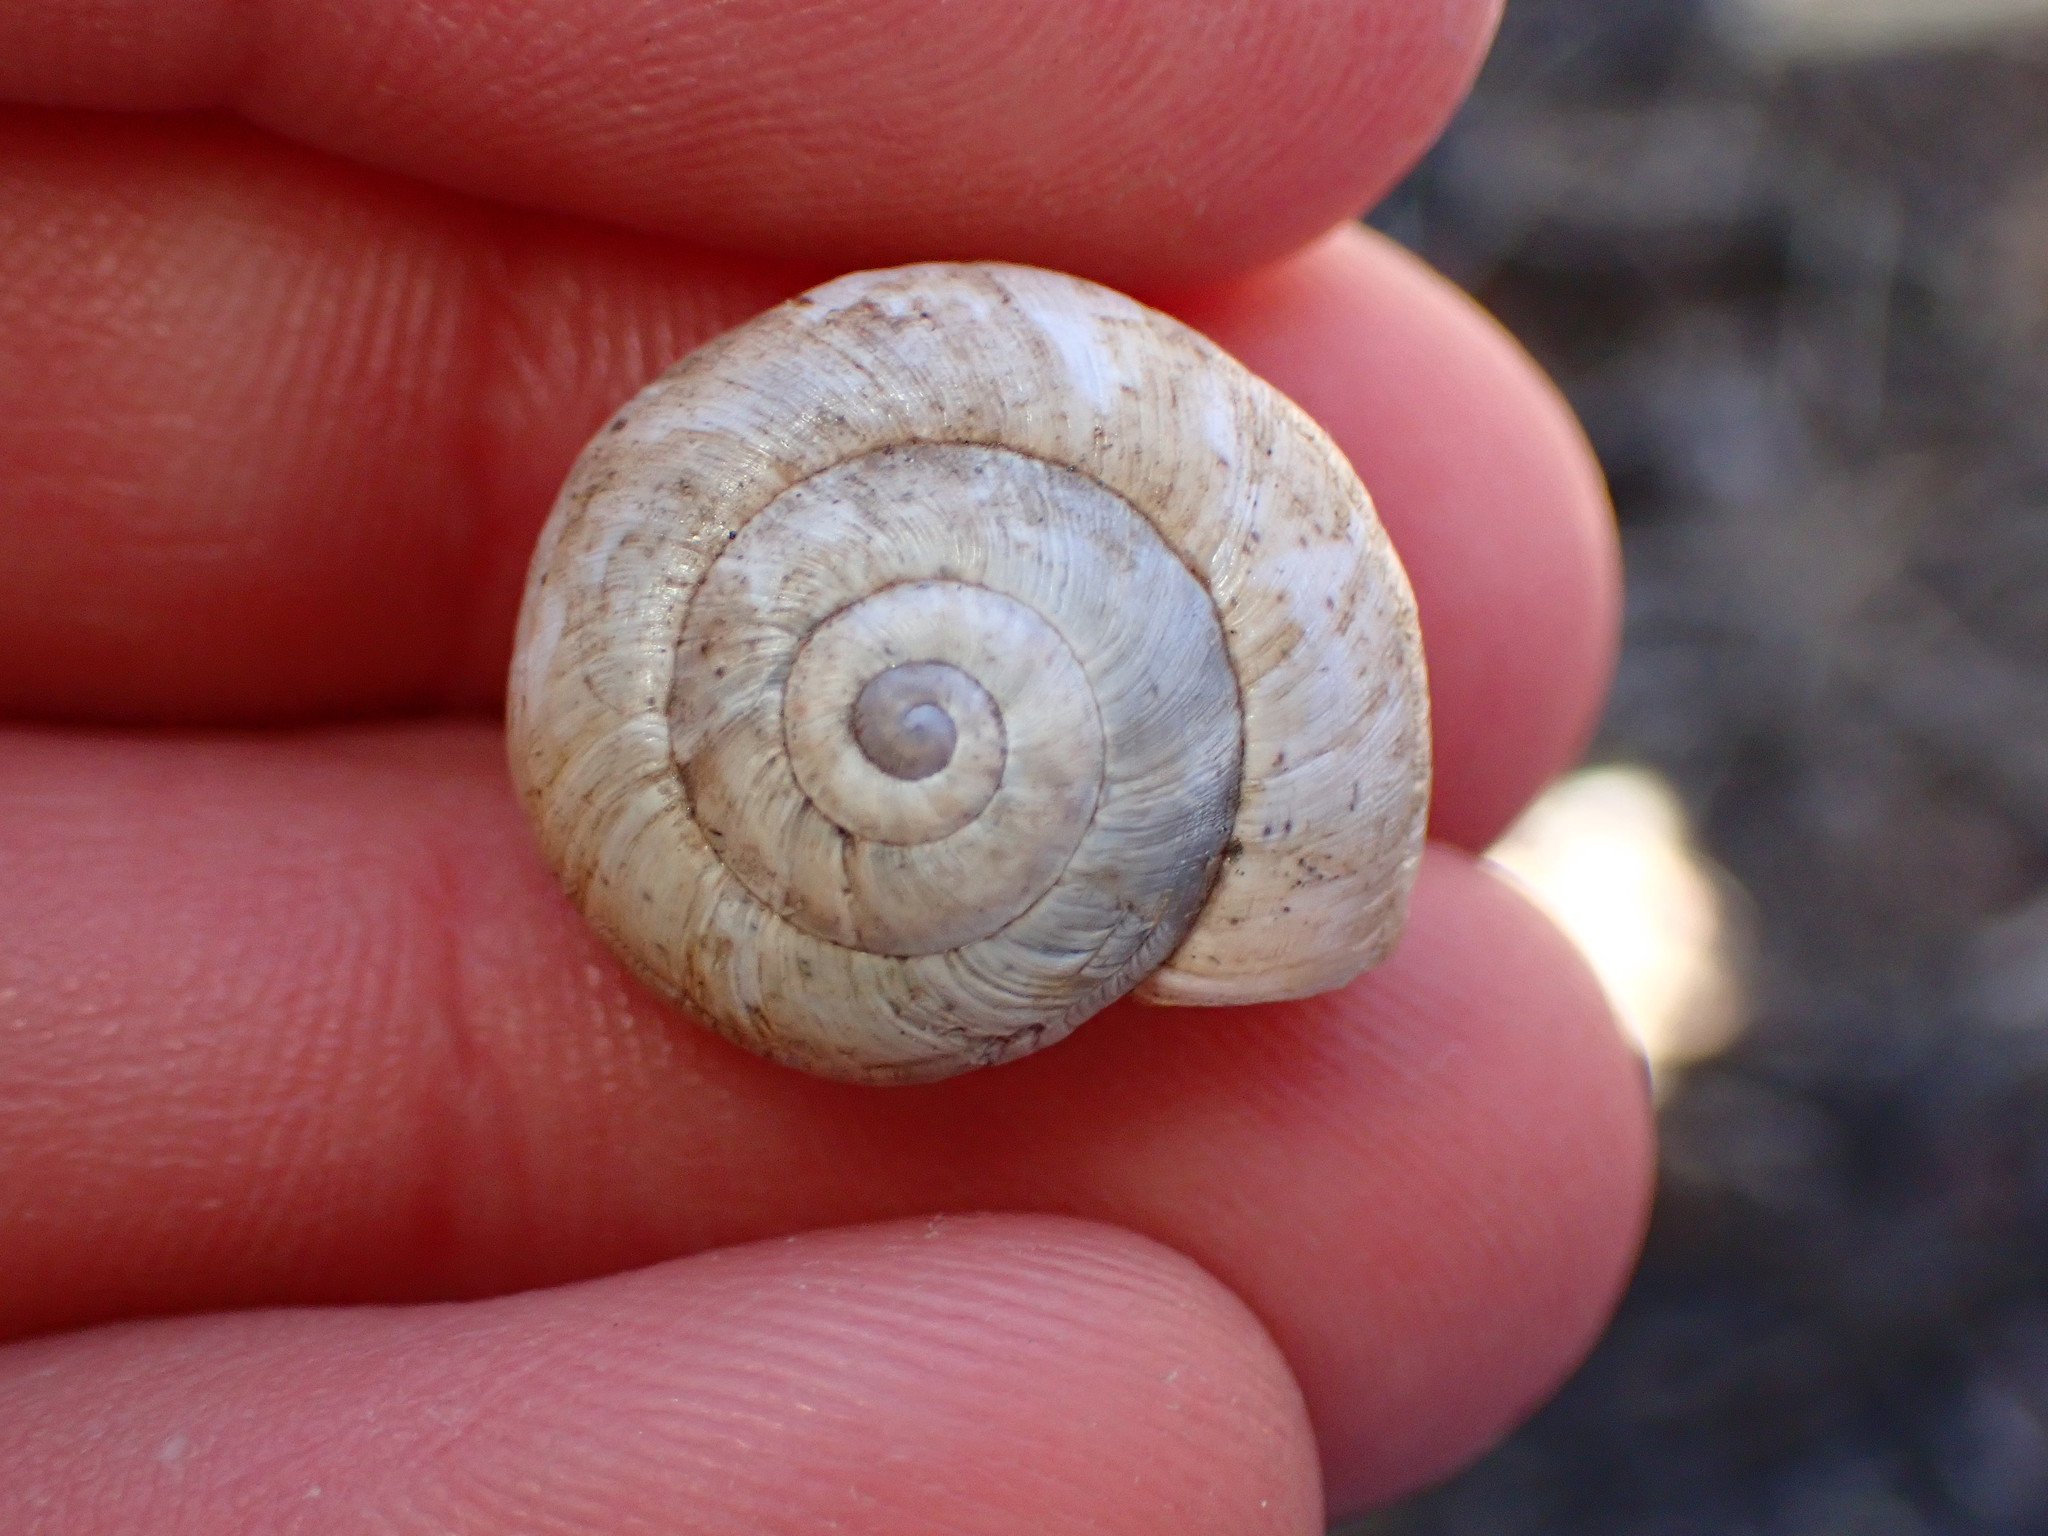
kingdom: Animalia
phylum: Mollusca
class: Gastropoda
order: Stylommatophora
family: Helicidae
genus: Theba
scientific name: Theba pisana
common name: White snail
